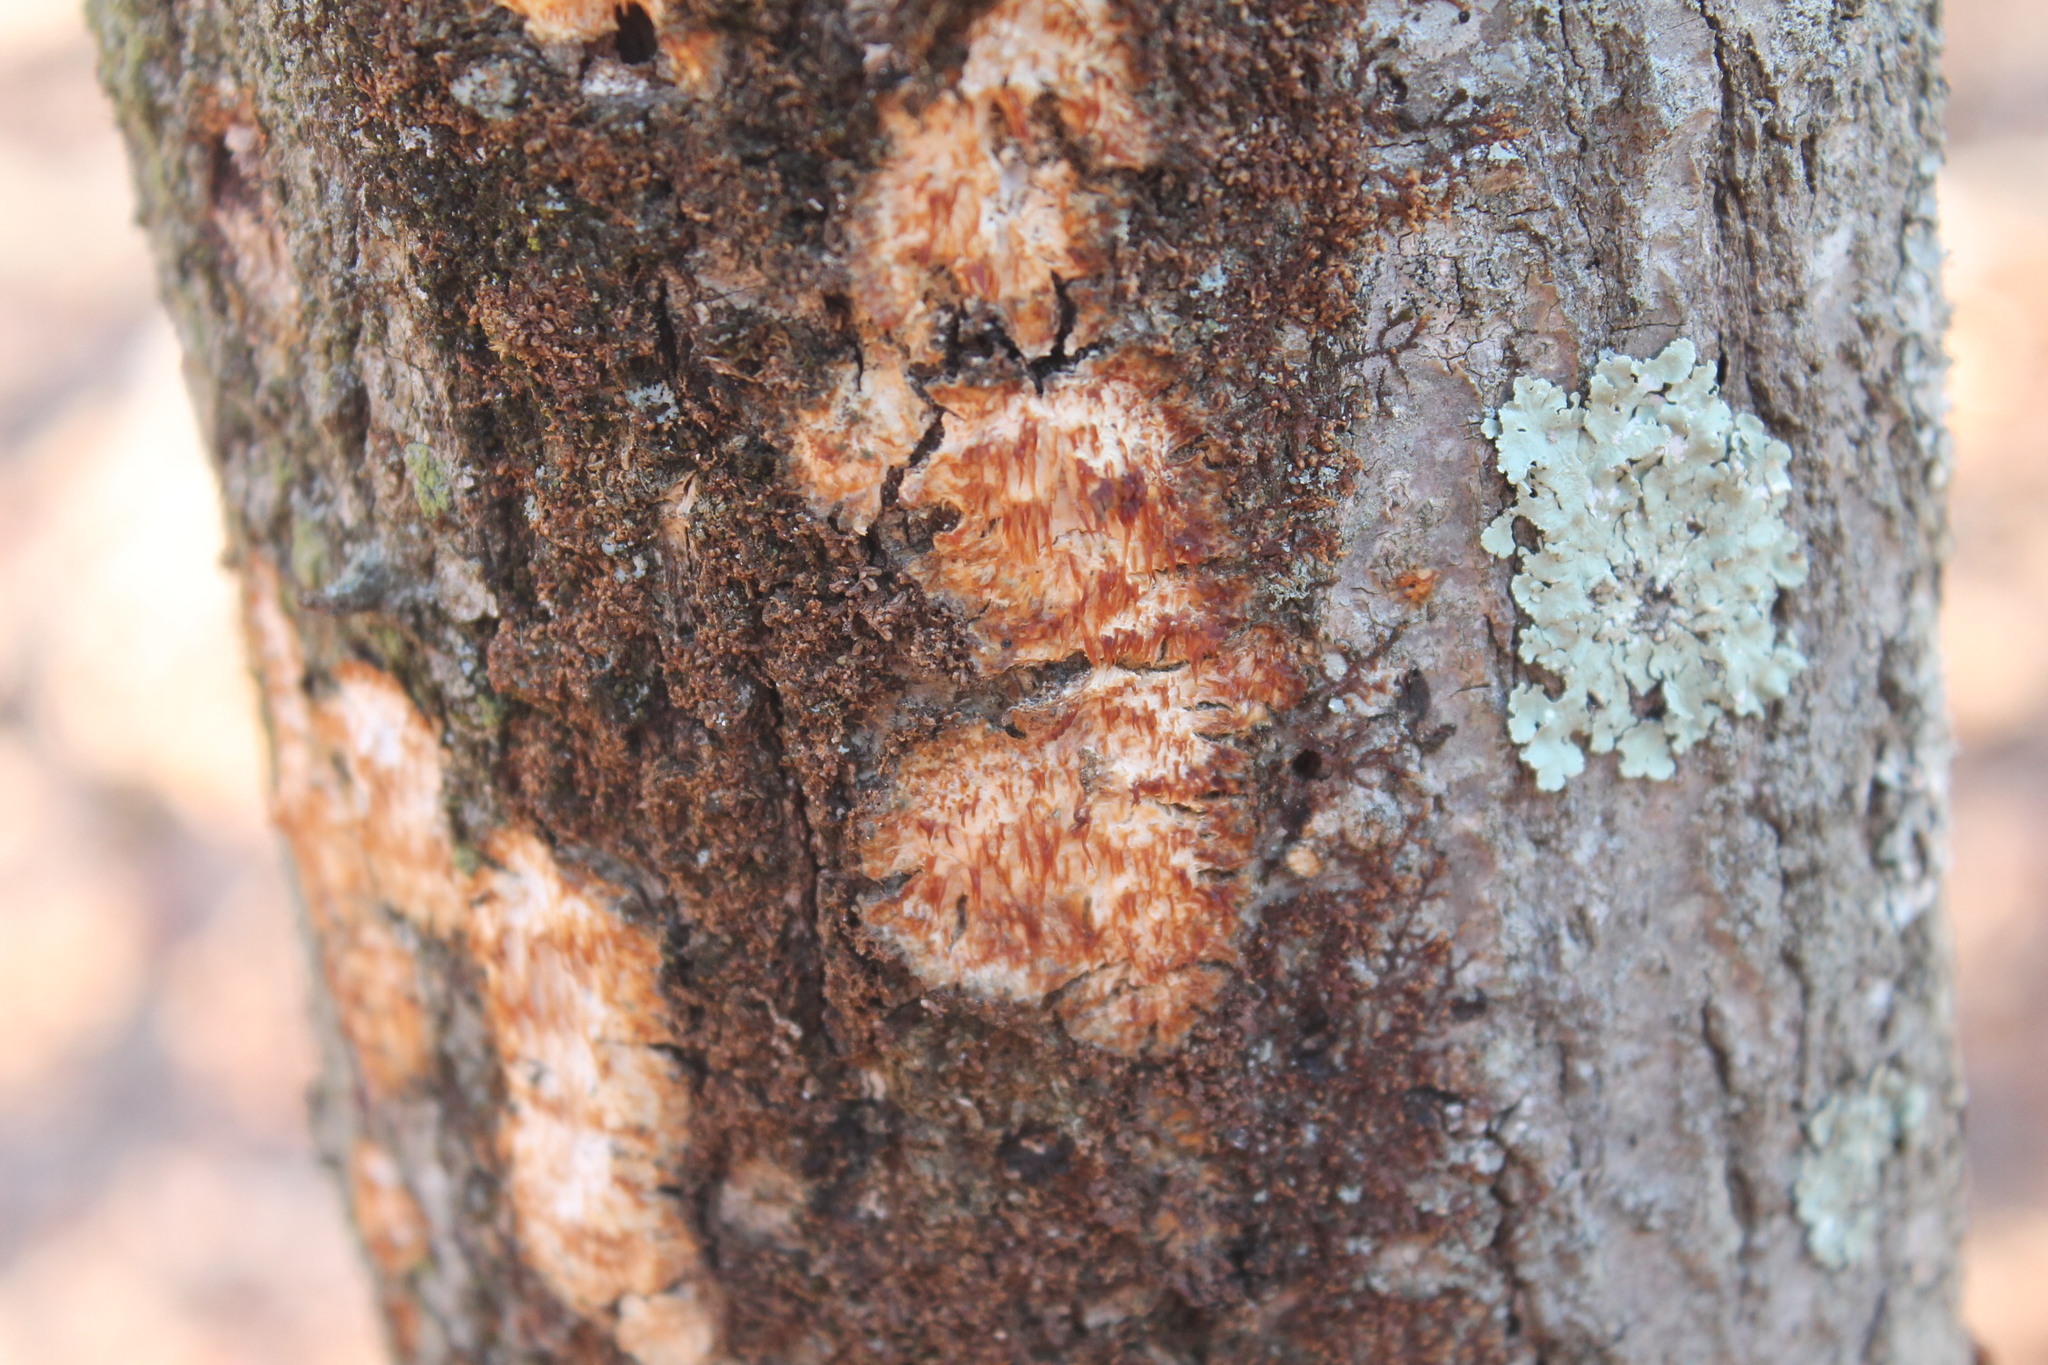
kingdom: Fungi
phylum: Basidiomycota
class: Agaricomycetes
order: Agaricales
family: Radulomycetaceae
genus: Radulomyces
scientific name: Radulomyces copelandii
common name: Asian beauty
